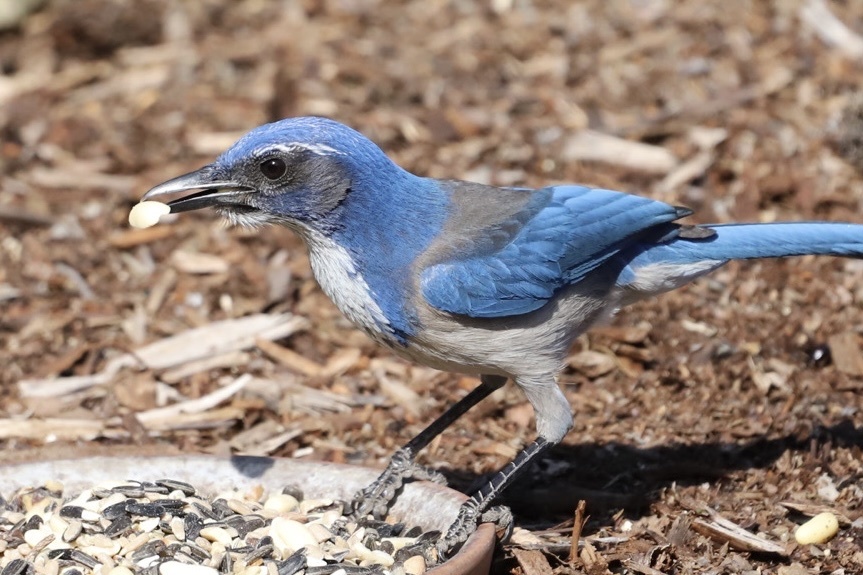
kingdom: Animalia
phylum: Chordata
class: Aves
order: Passeriformes
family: Corvidae
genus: Aphelocoma
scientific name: Aphelocoma californica
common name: California scrub-jay
